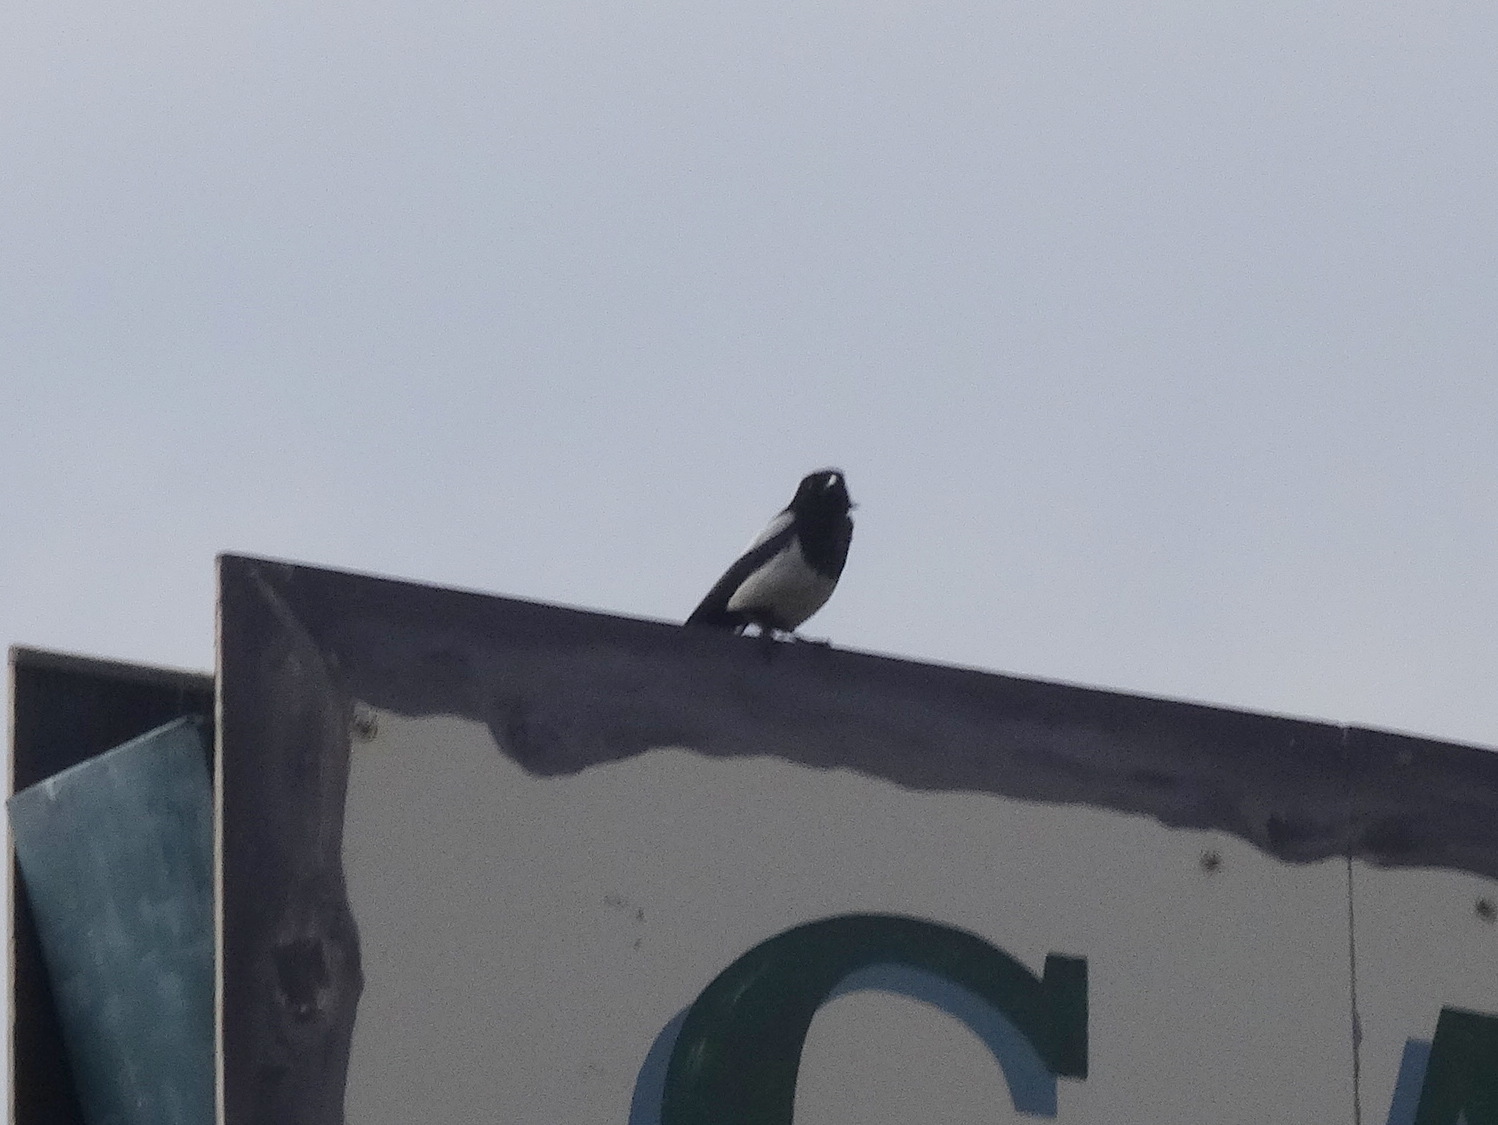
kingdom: Animalia
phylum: Chordata
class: Aves
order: Passeriformes
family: Corvidae
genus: Pica
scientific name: Pica hudsonia
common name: Black-billed magpie
